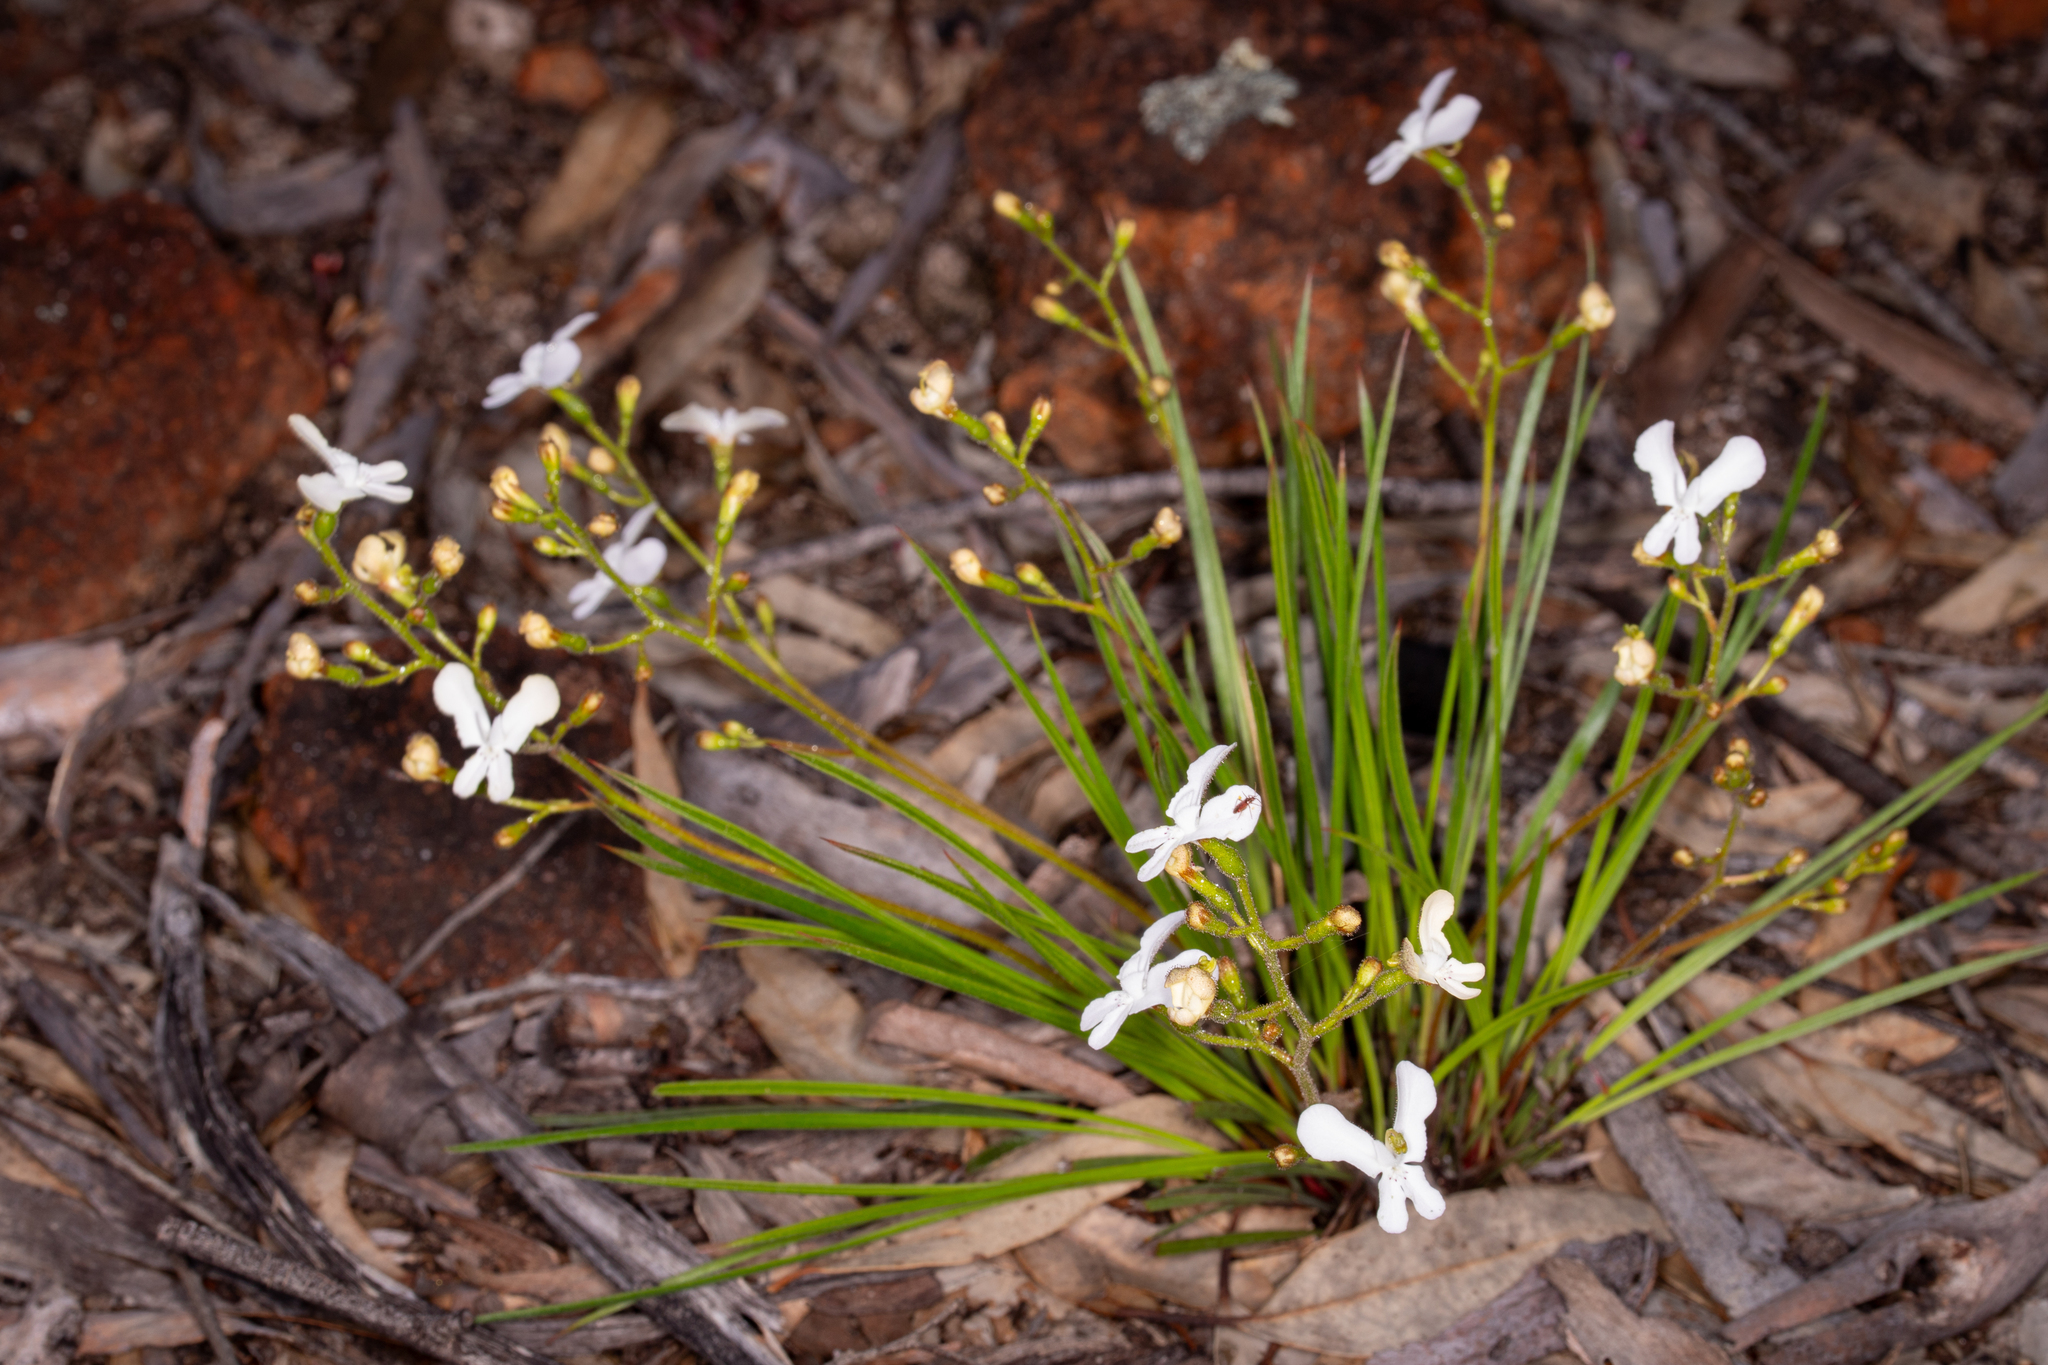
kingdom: Plantae
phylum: Tracheophyta
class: Magnoliopsida
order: Asterales
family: Stylidiaceae
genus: Stylidium
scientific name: Stylidium caricifolium
